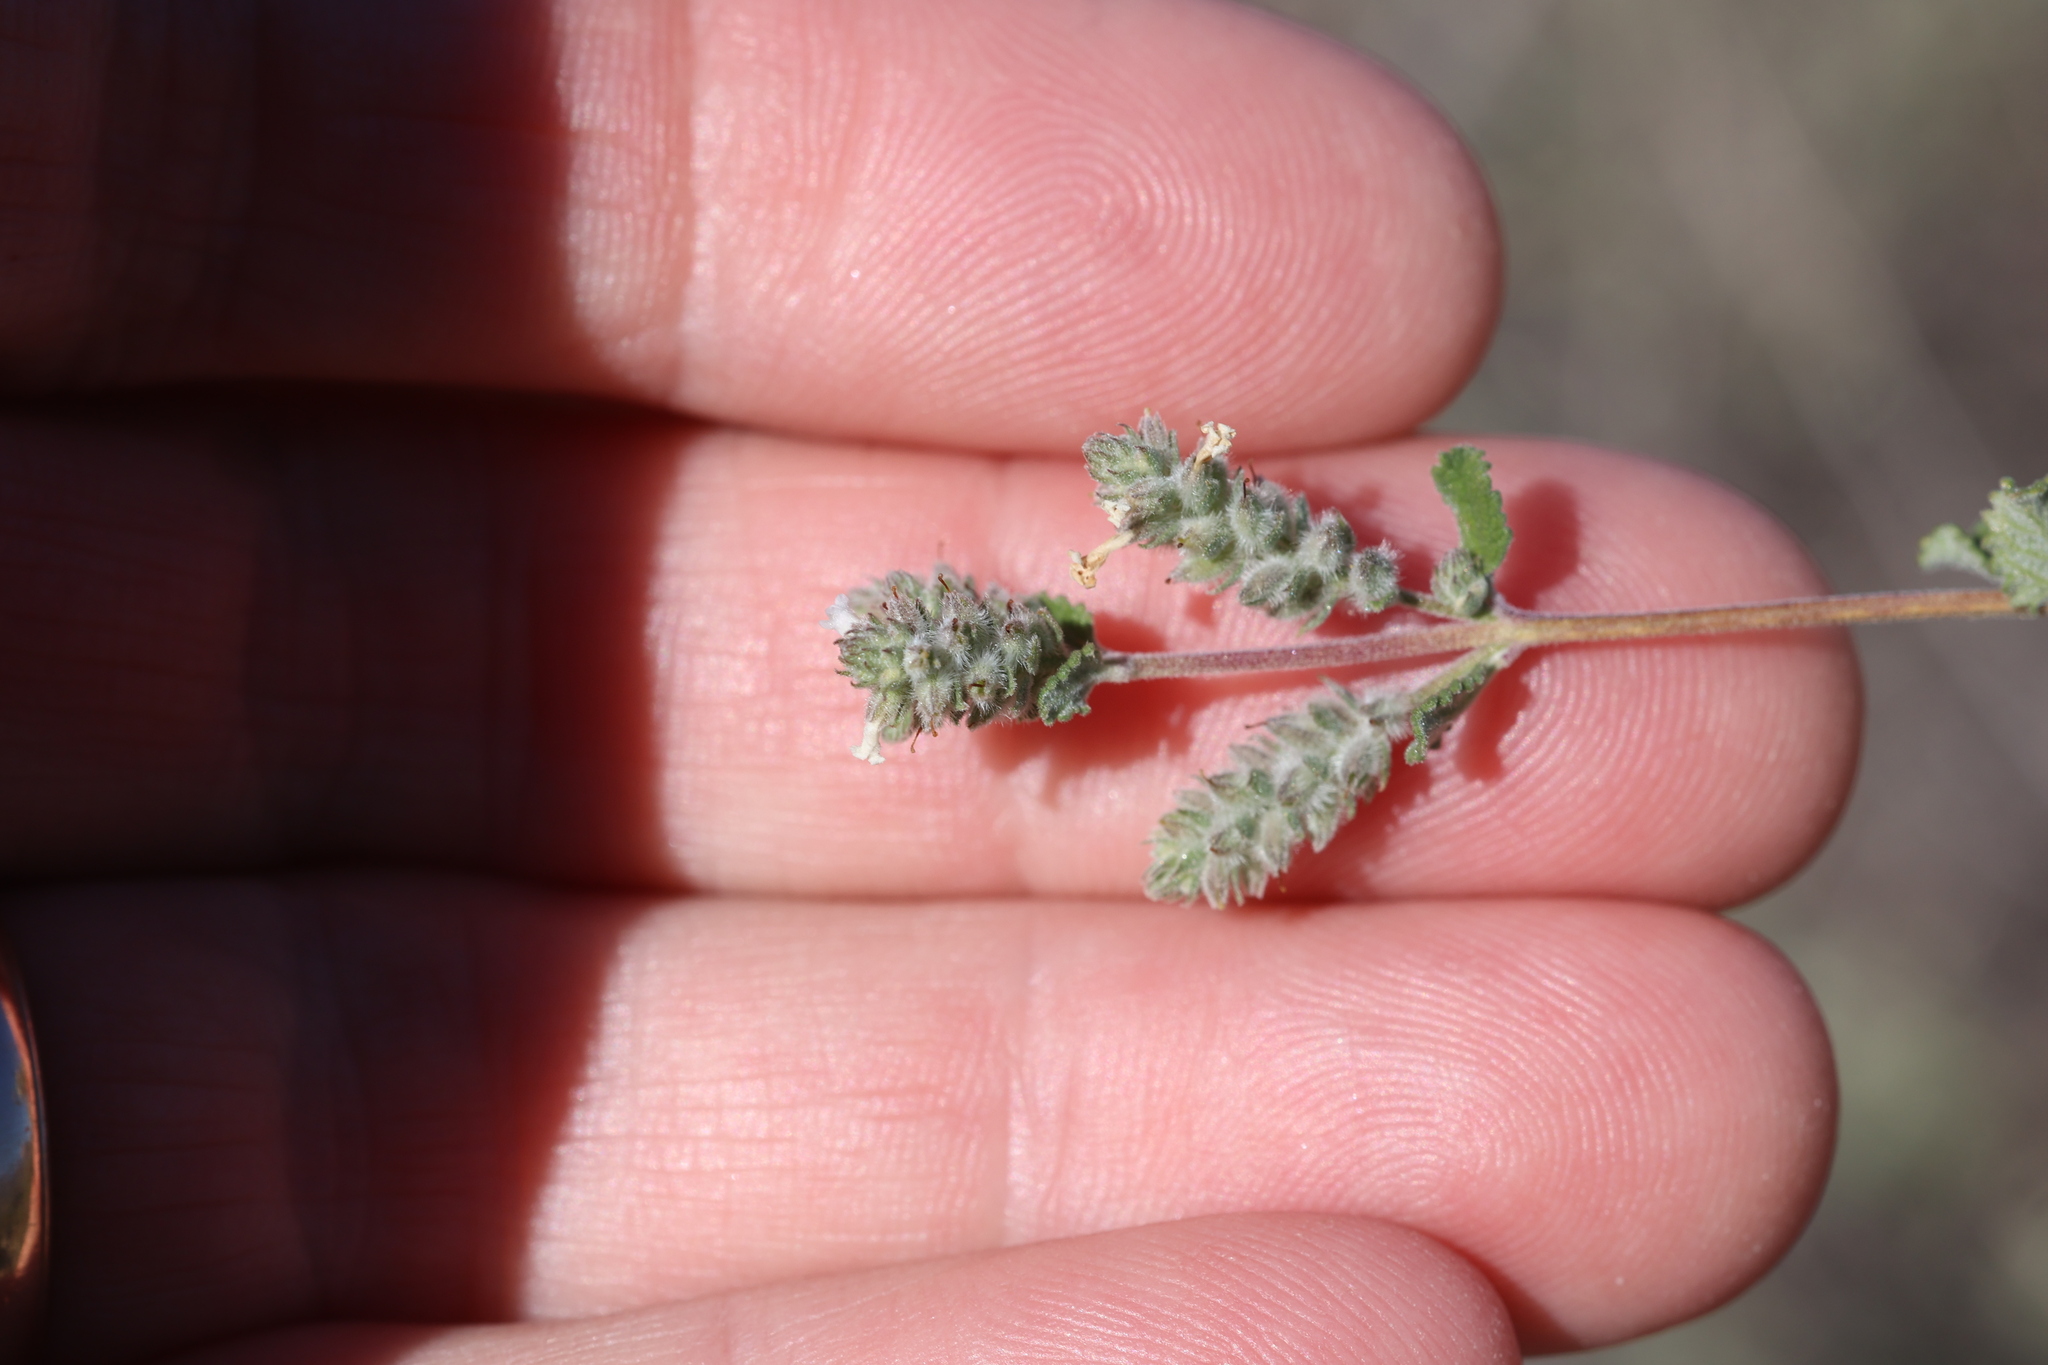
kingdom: Plantae
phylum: Tracheophyta
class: Magnoliopsida
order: Lamiales
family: Verbenaceae
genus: Aloysia
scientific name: Aloysia wrightii
